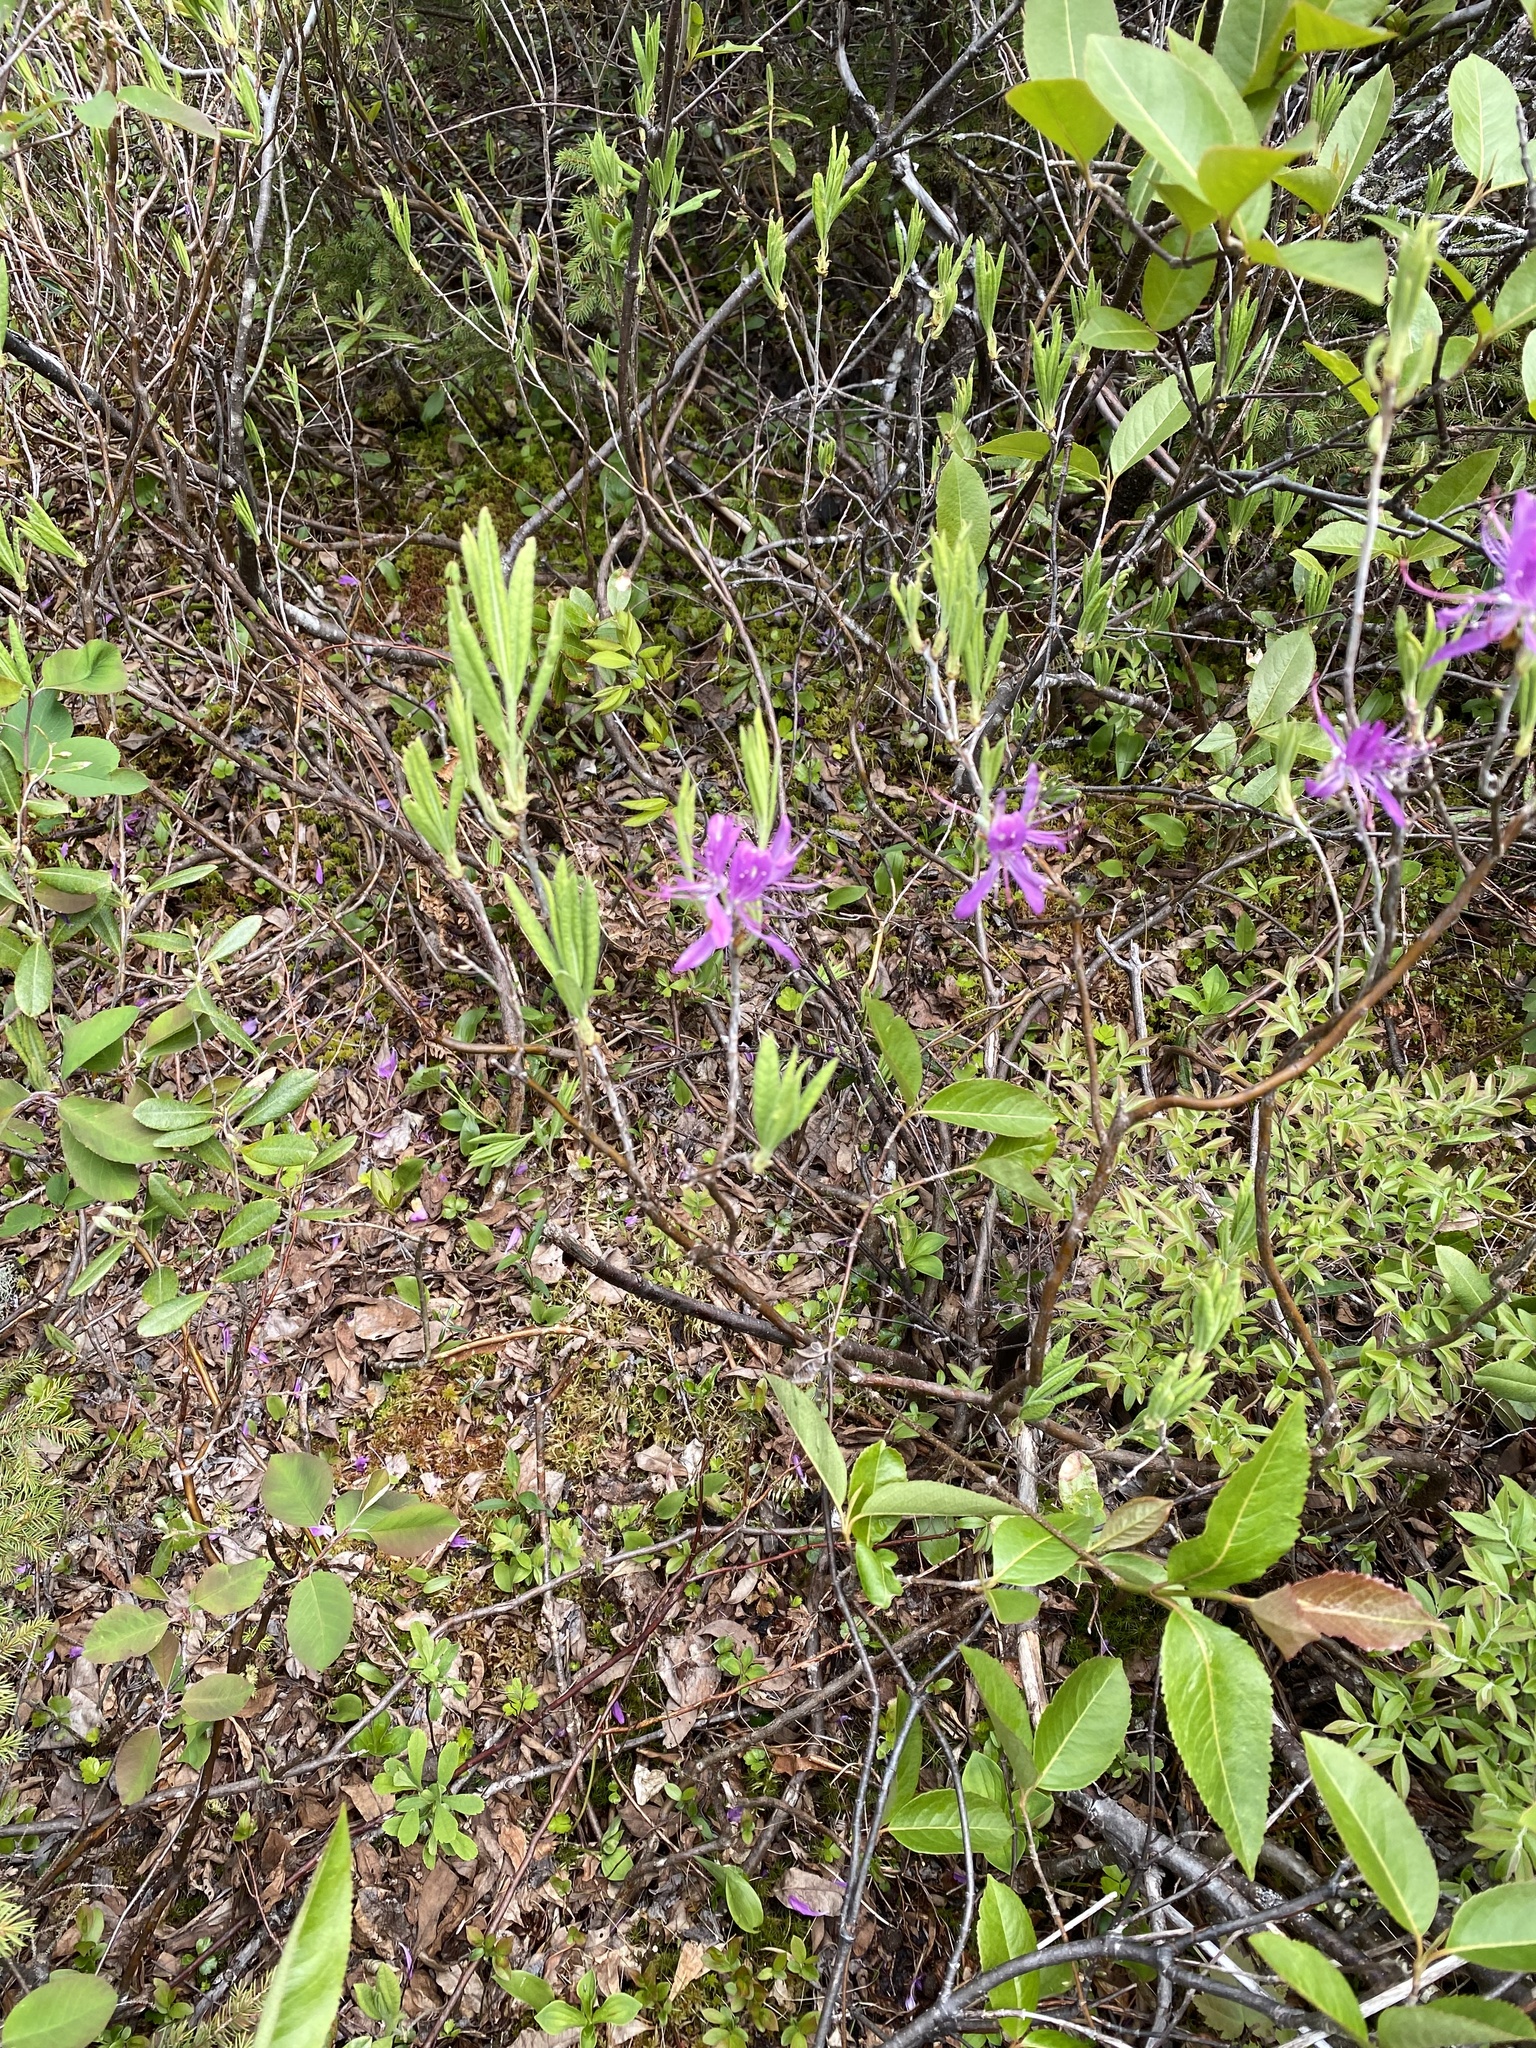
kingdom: Plantae
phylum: Tracheophyta
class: Magnoliopsida
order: Ericales
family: Ericaceae
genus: Rhododendron
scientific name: Rhododendron canadense
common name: Rhodora
